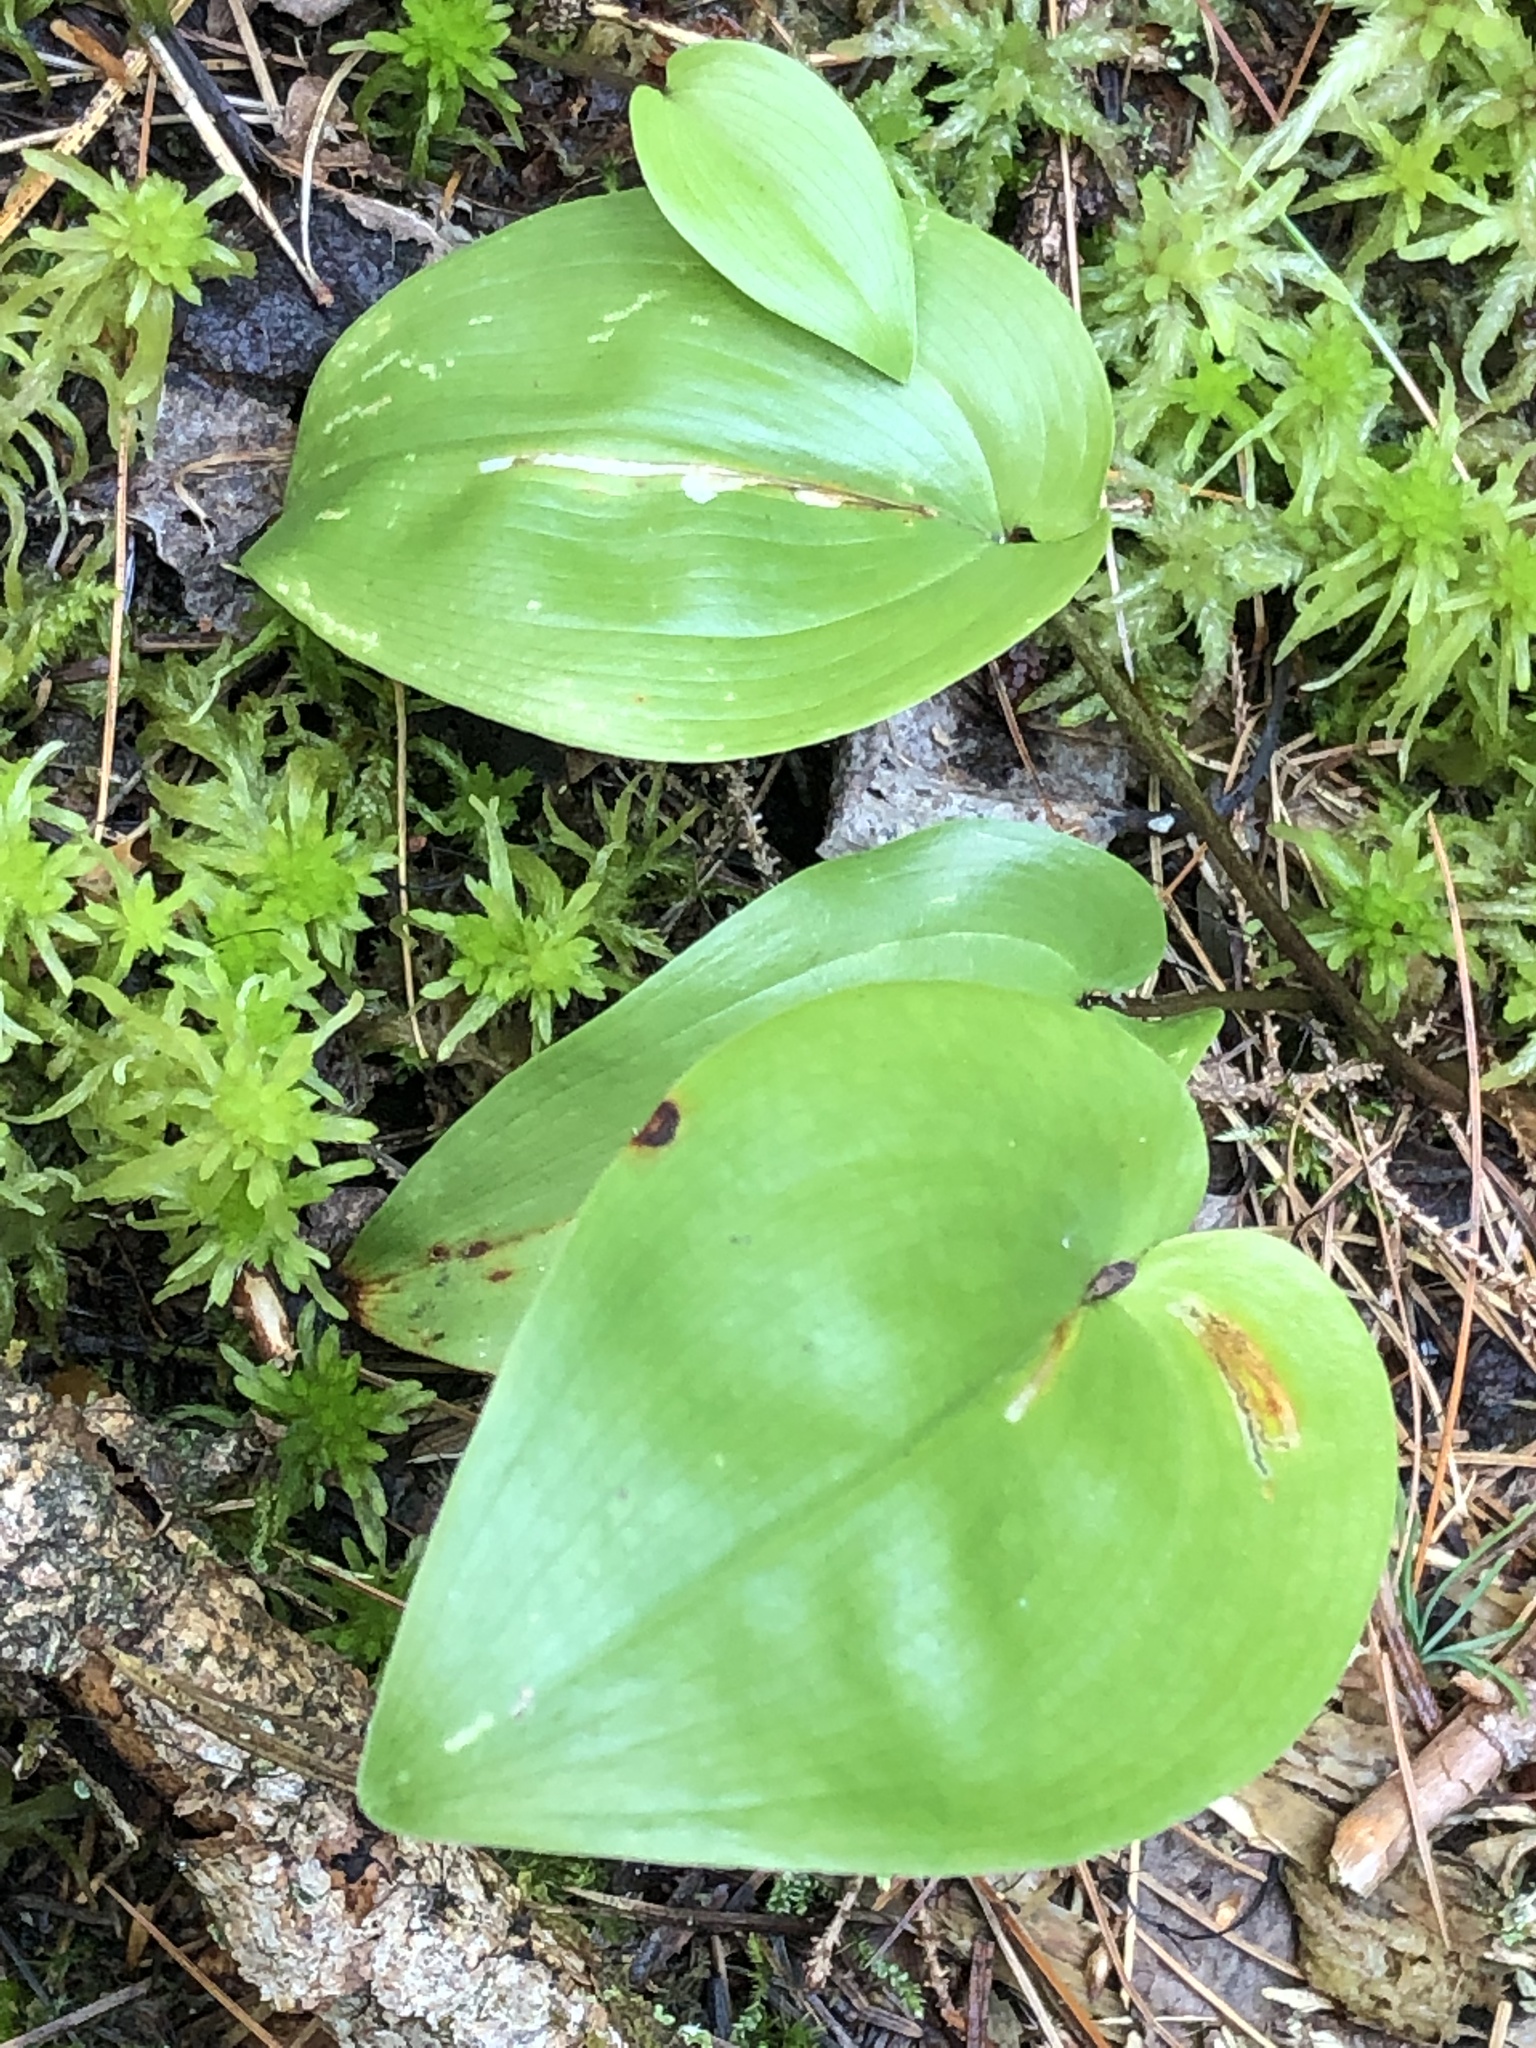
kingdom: Plantae
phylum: Tracheophyta
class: Liliopsida
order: Asparagales
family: Asparagaceae
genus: Maianthemum
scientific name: Maianthemum canadense
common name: False lily-of-the-valley
